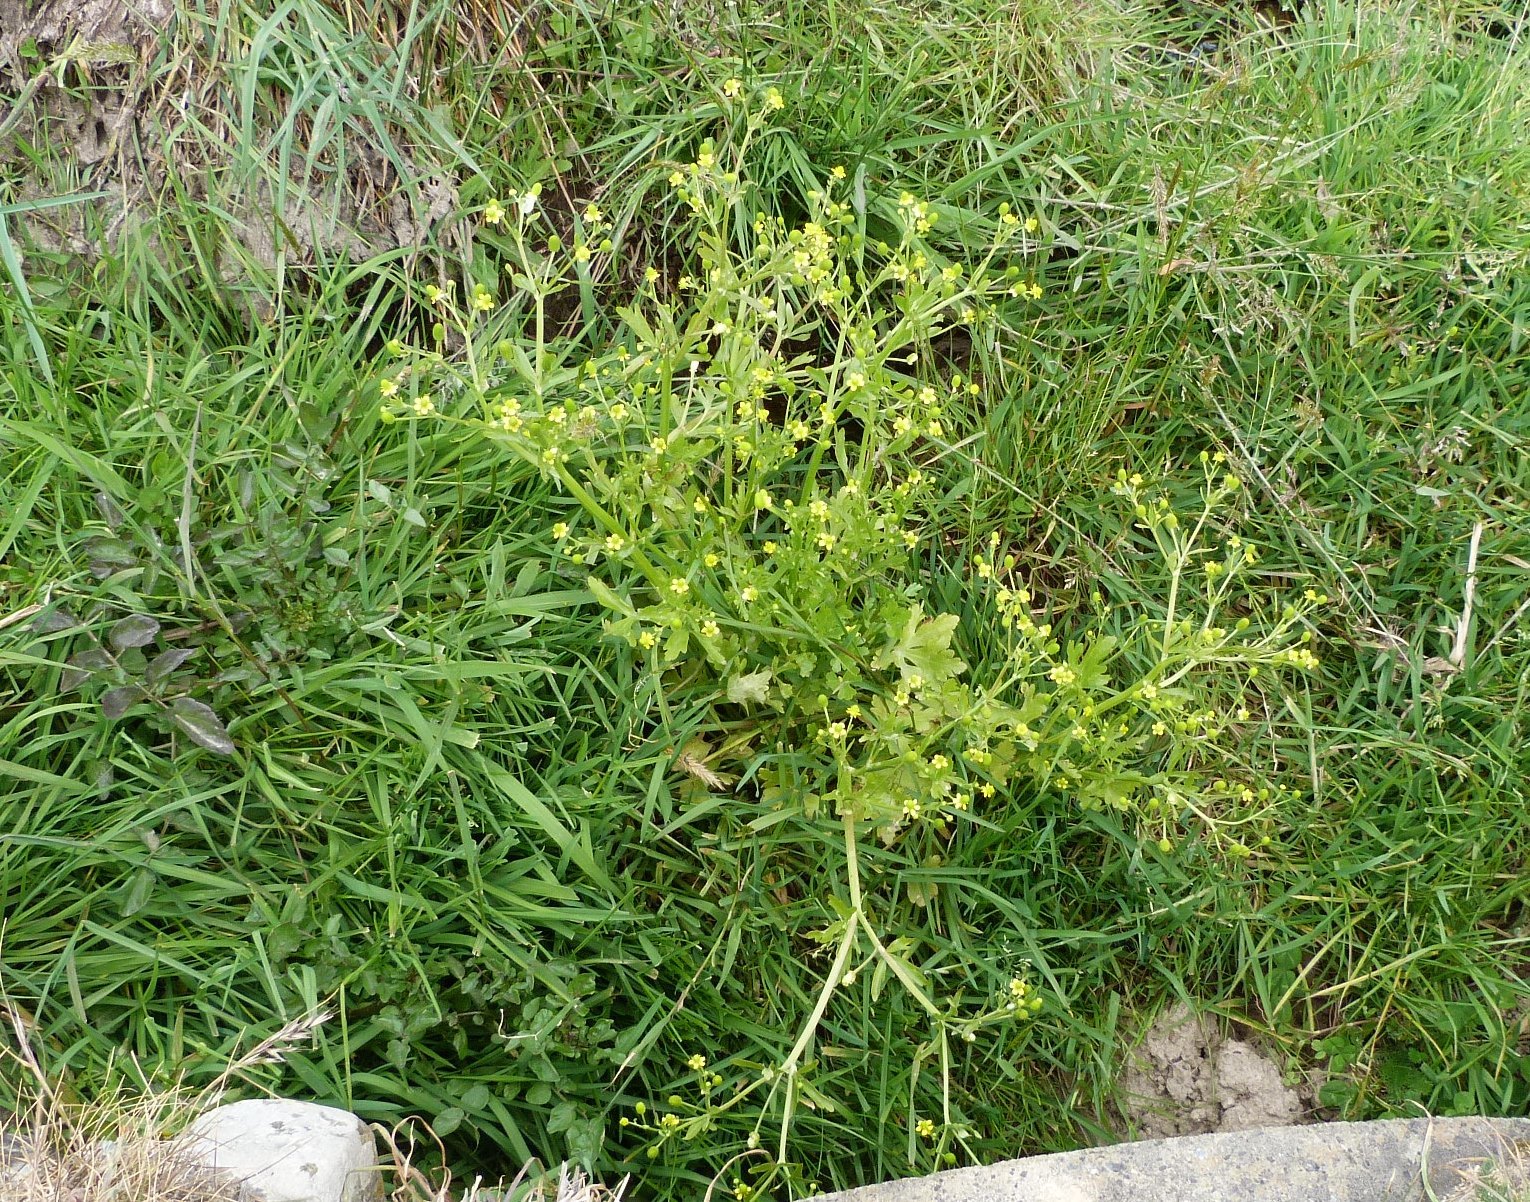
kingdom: Plantae
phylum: Tracheophyta
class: Magnoliopsida
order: Ranunculales
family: Ranunculaceae
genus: Ranunculus
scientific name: Ranunculus sceleratus
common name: Celery-leaved buttercup
